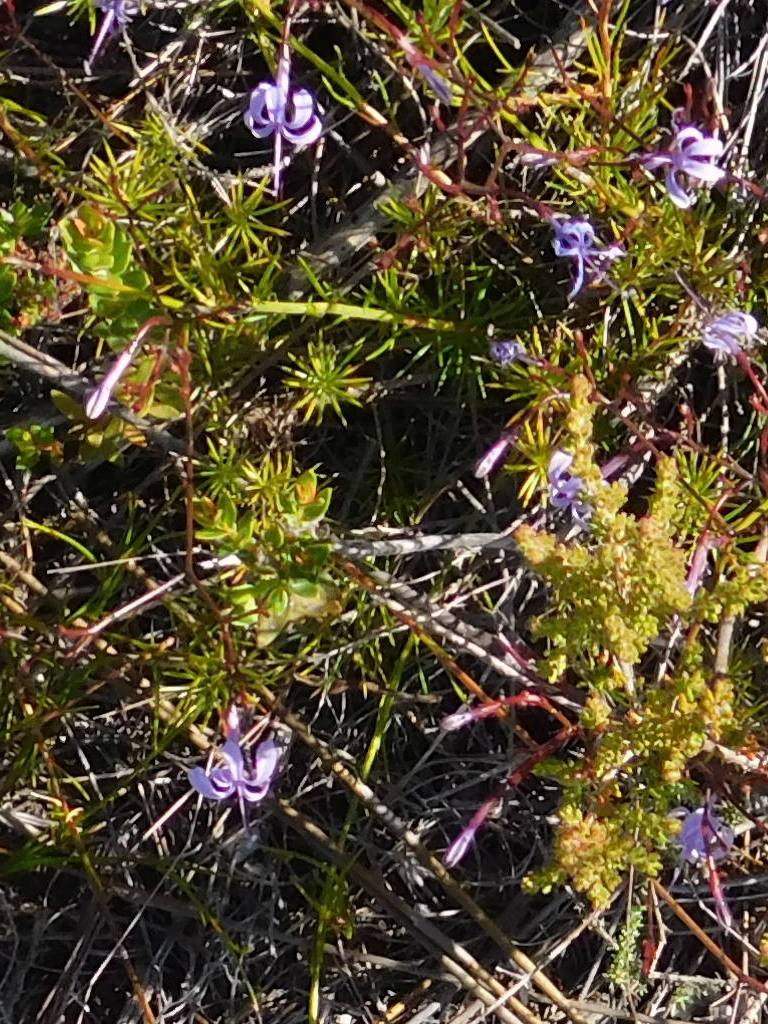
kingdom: Plantae
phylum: Tracheophyta
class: Magnoliopsida
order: Asterales
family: Campanulaceae
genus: Prismatocarpus
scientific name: Prismatocarpus diffusus
